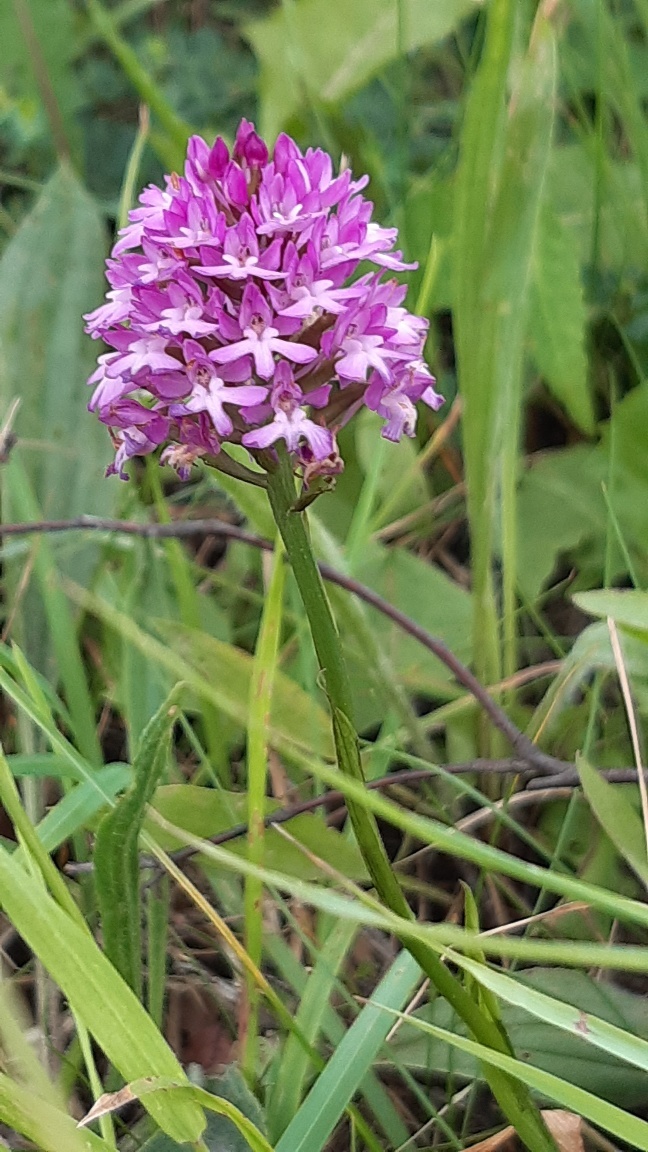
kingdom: Plantae
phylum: Tracheophyta
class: Liliopsida
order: Asparagales
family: Orchidaceae
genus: Anacamptis
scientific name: Anacamptis pyramidalis
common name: Pyramidal orchid
